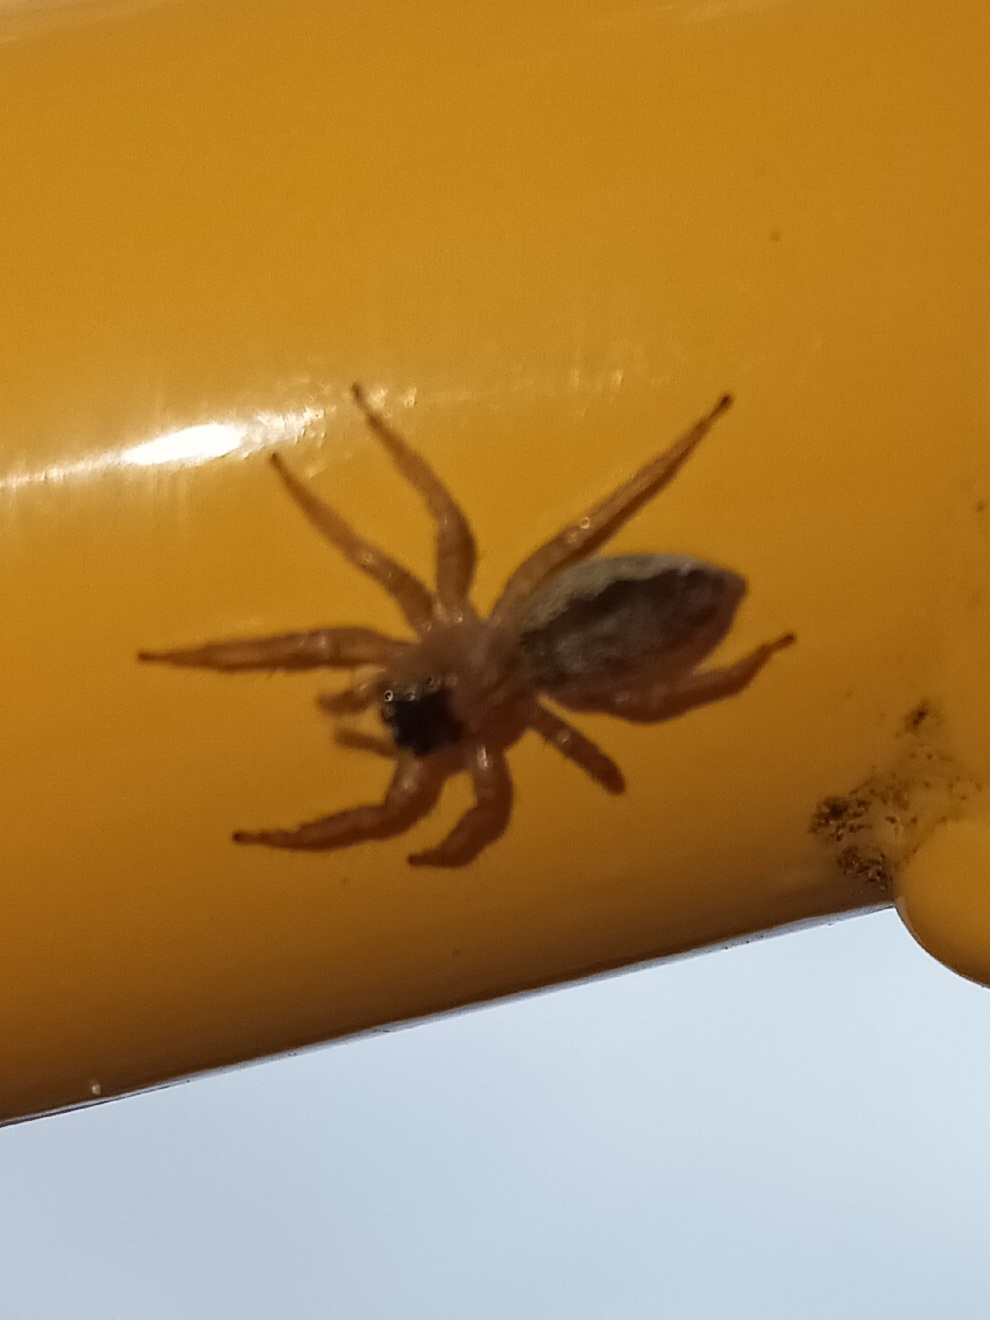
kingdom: Animalia
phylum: Arthropoda
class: Arachnida
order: Araneae
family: Salticidae
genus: Maevia
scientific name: Maevia inclemens
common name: Dimorphic jumper
